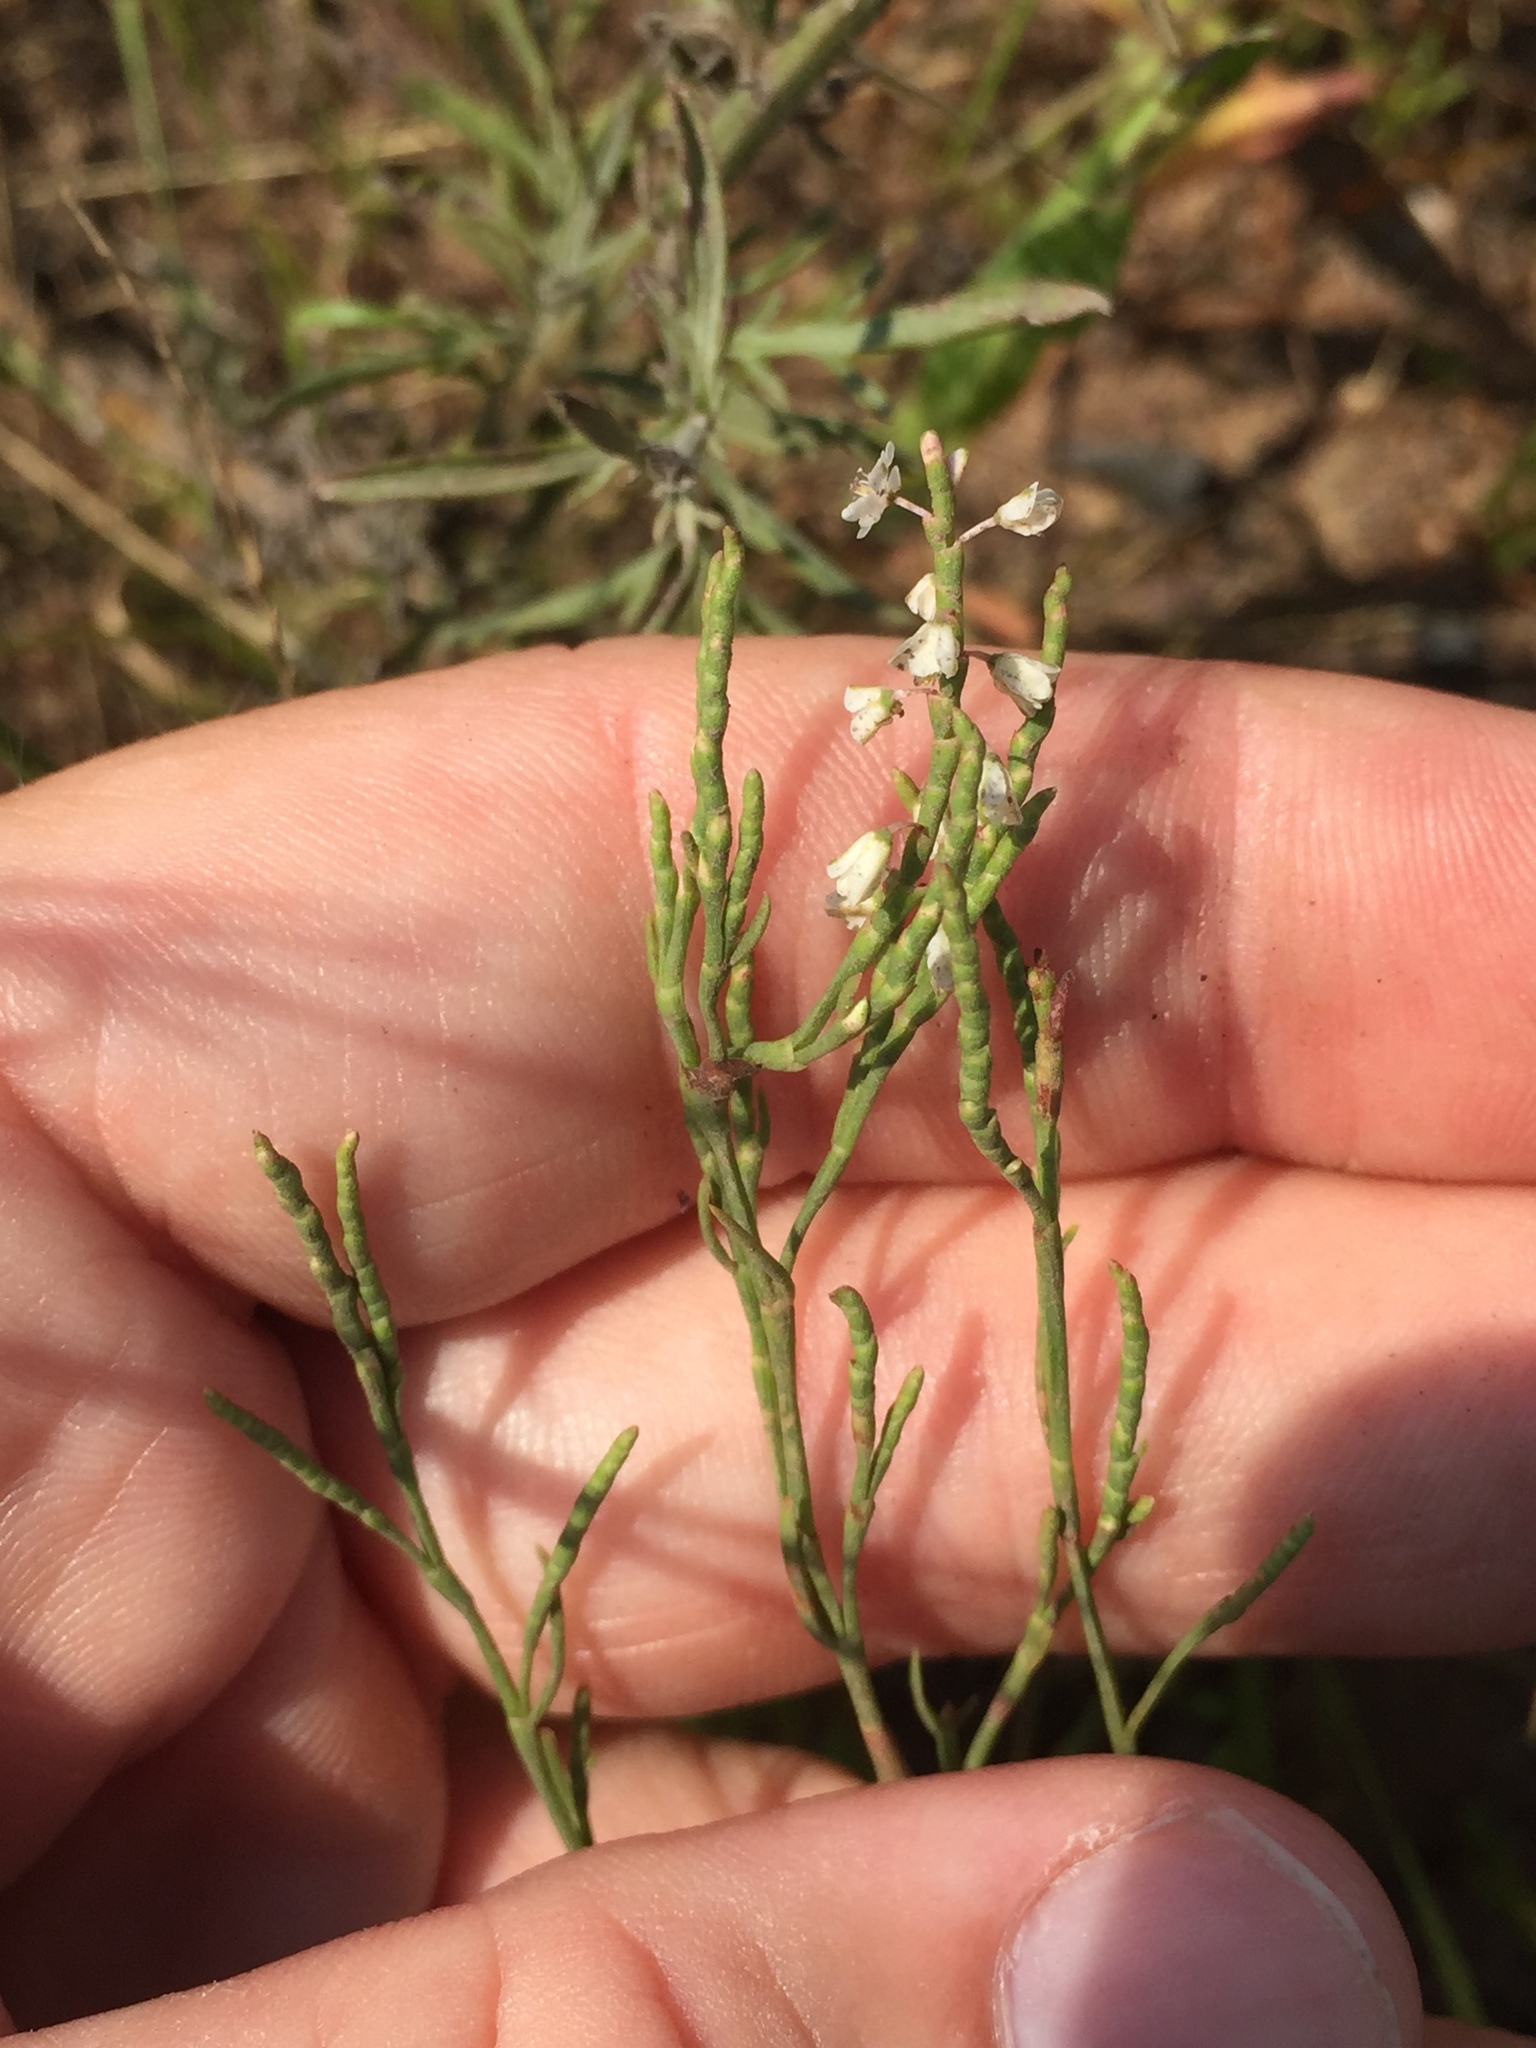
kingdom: Plantae
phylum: Tracheophyta
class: Magnoliopsida
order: Caryophyllales
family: Polygonaceae
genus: Polygonella
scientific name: Polygonella articulata
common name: Coastal jointweed
